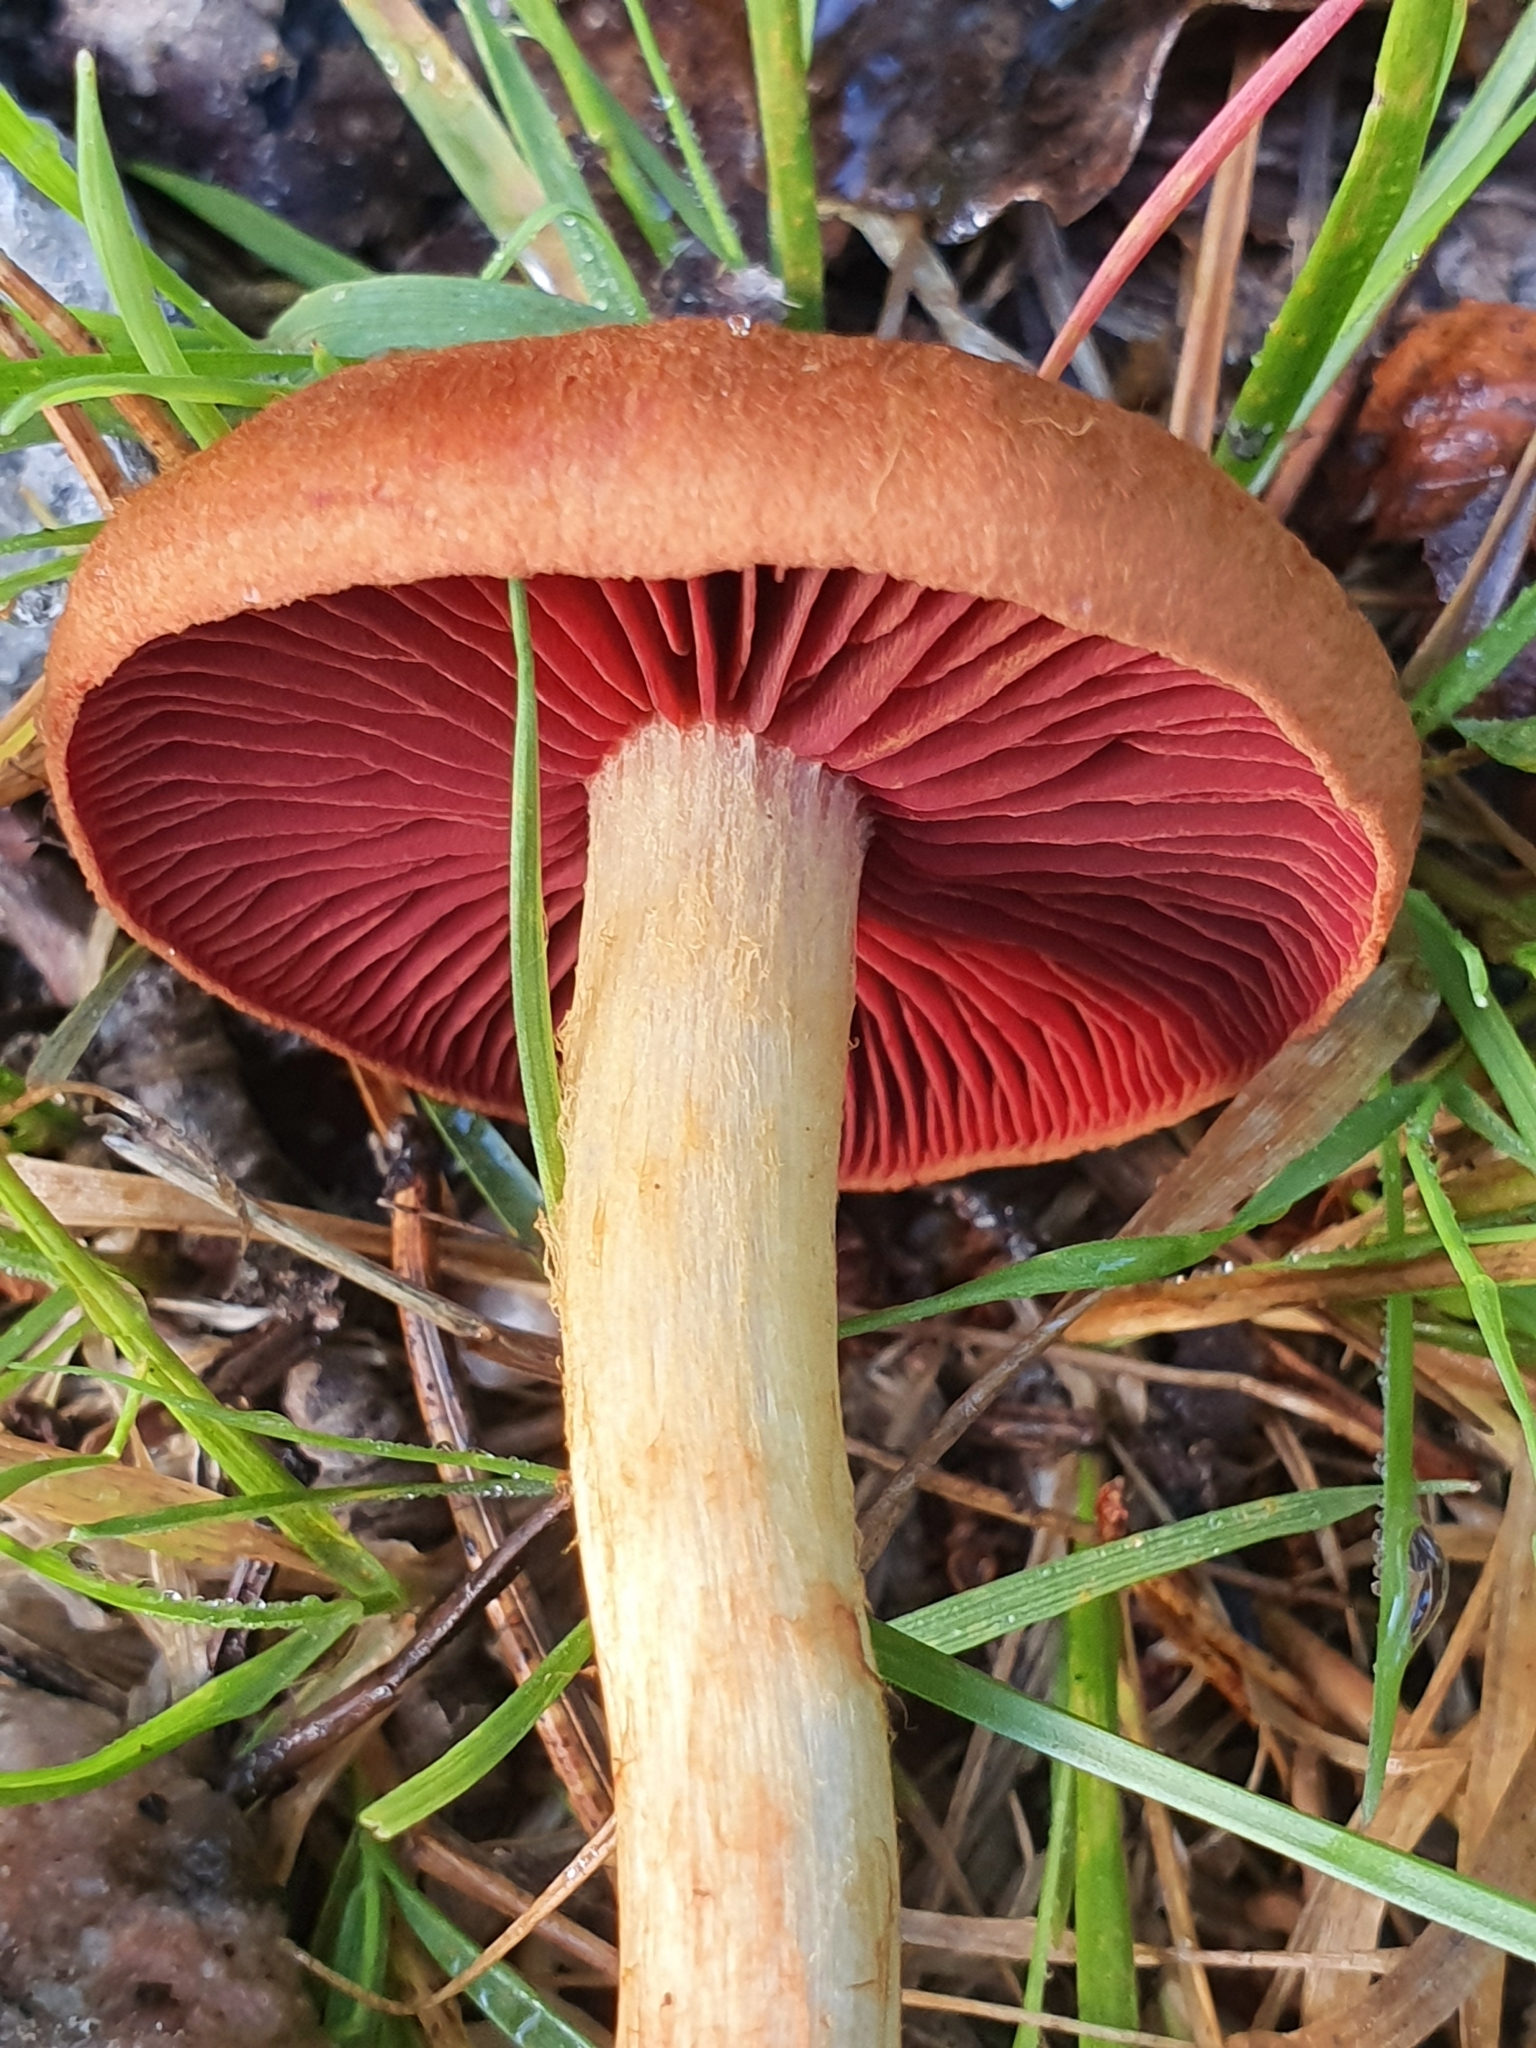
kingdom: Fungi
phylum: Basidiomycota
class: Agaricomycetes
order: Agaricales
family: Cortinariaceae
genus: Cortinarius
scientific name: Cortinarius semisanguineus
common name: Surprise webcap
